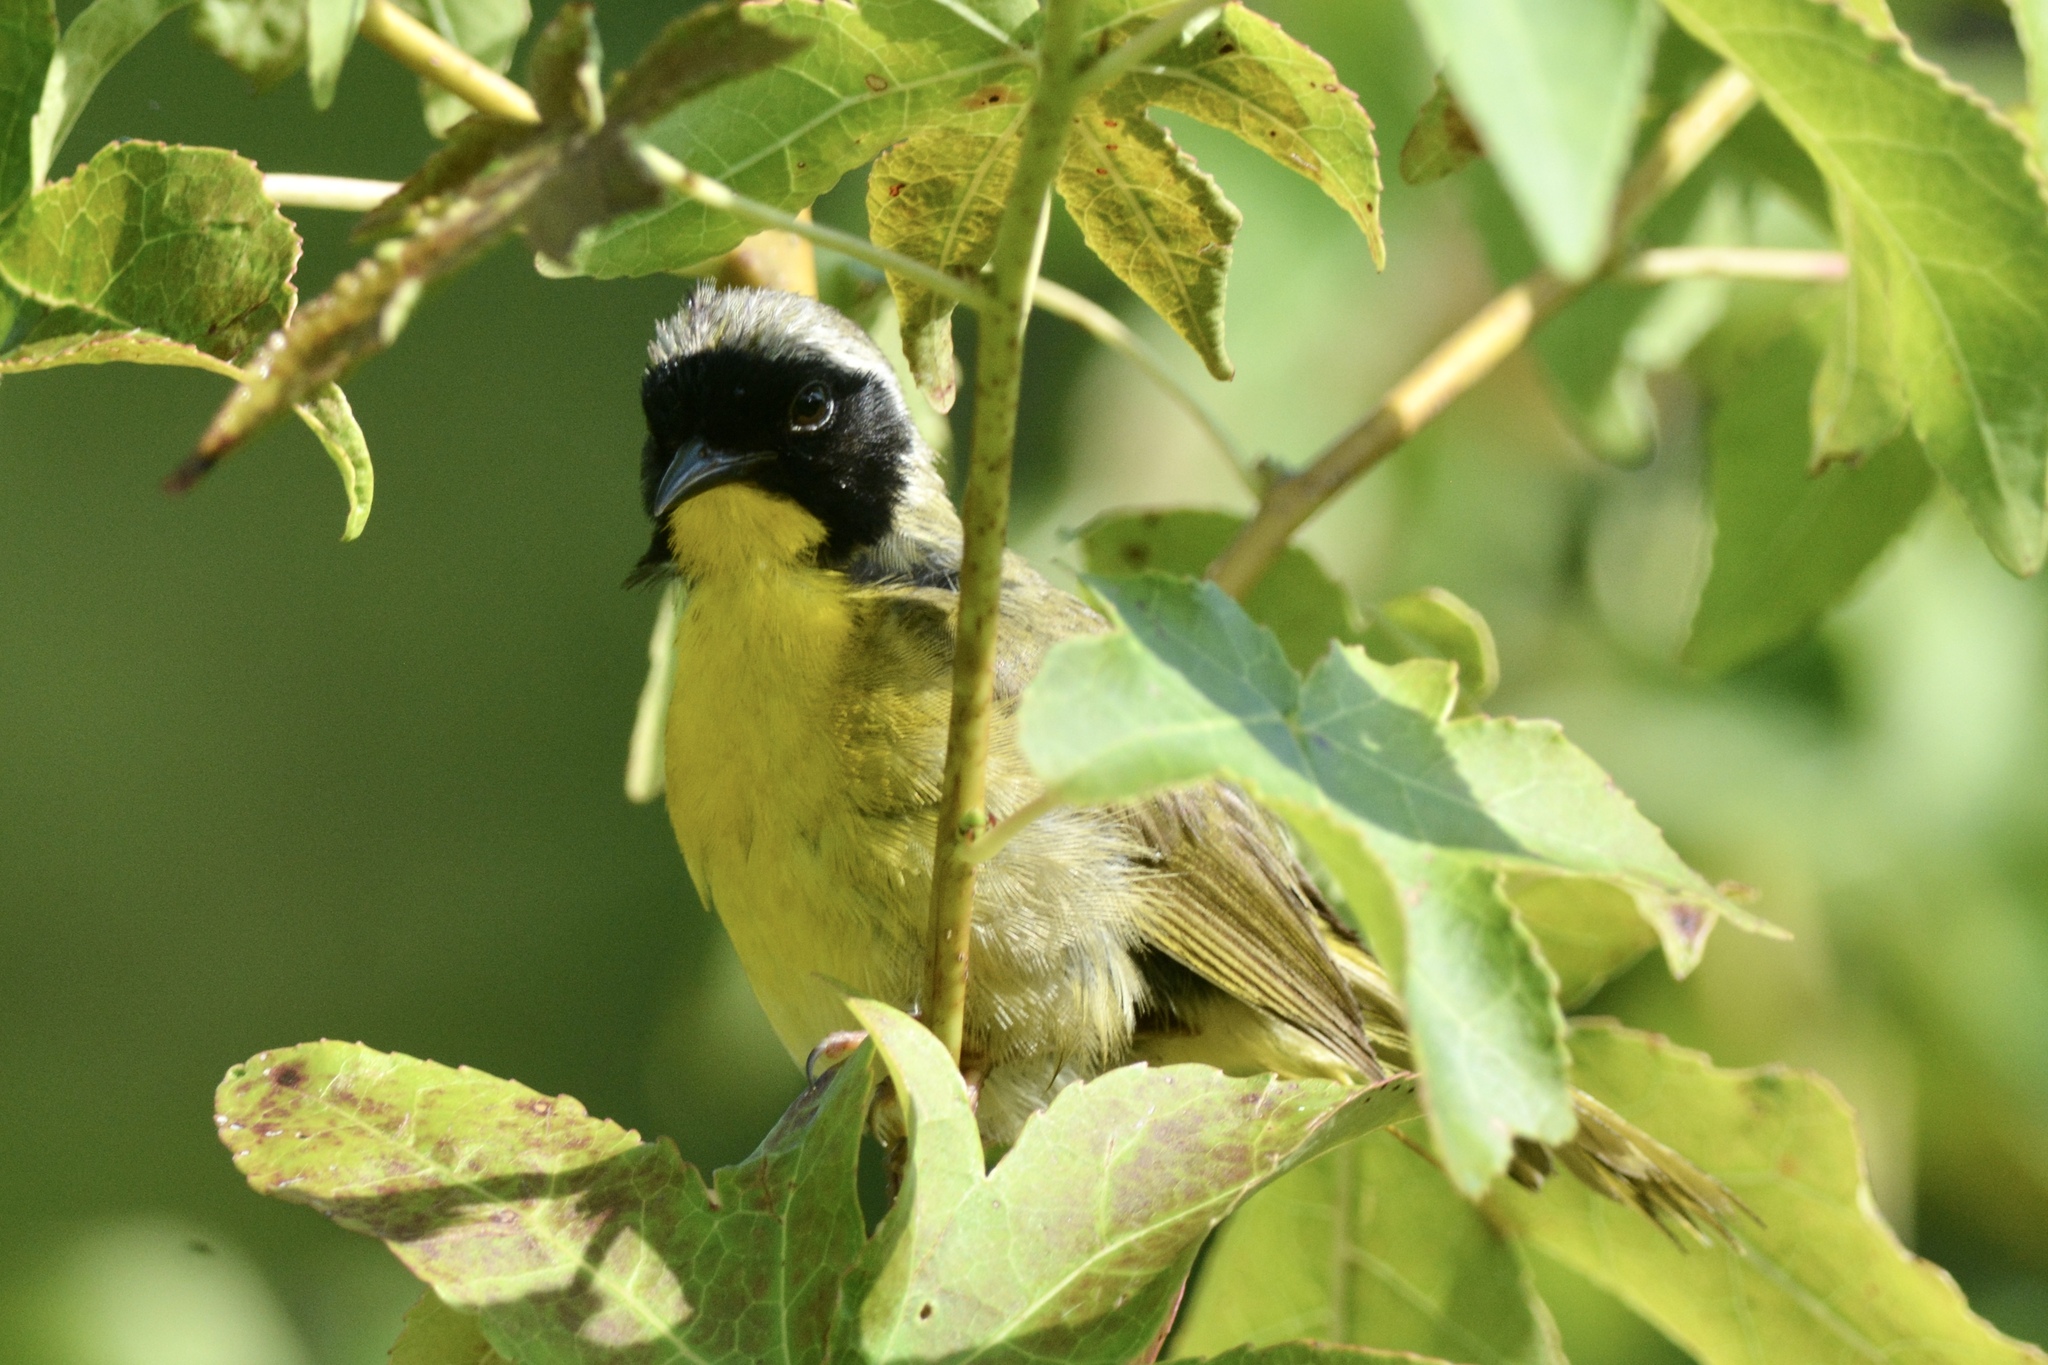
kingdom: Animalia
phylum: Chordata
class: Aves
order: Passeriformes
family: Parulidae
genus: Geothlypis
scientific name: Geothlypis trichas
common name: Common yellowthroat
